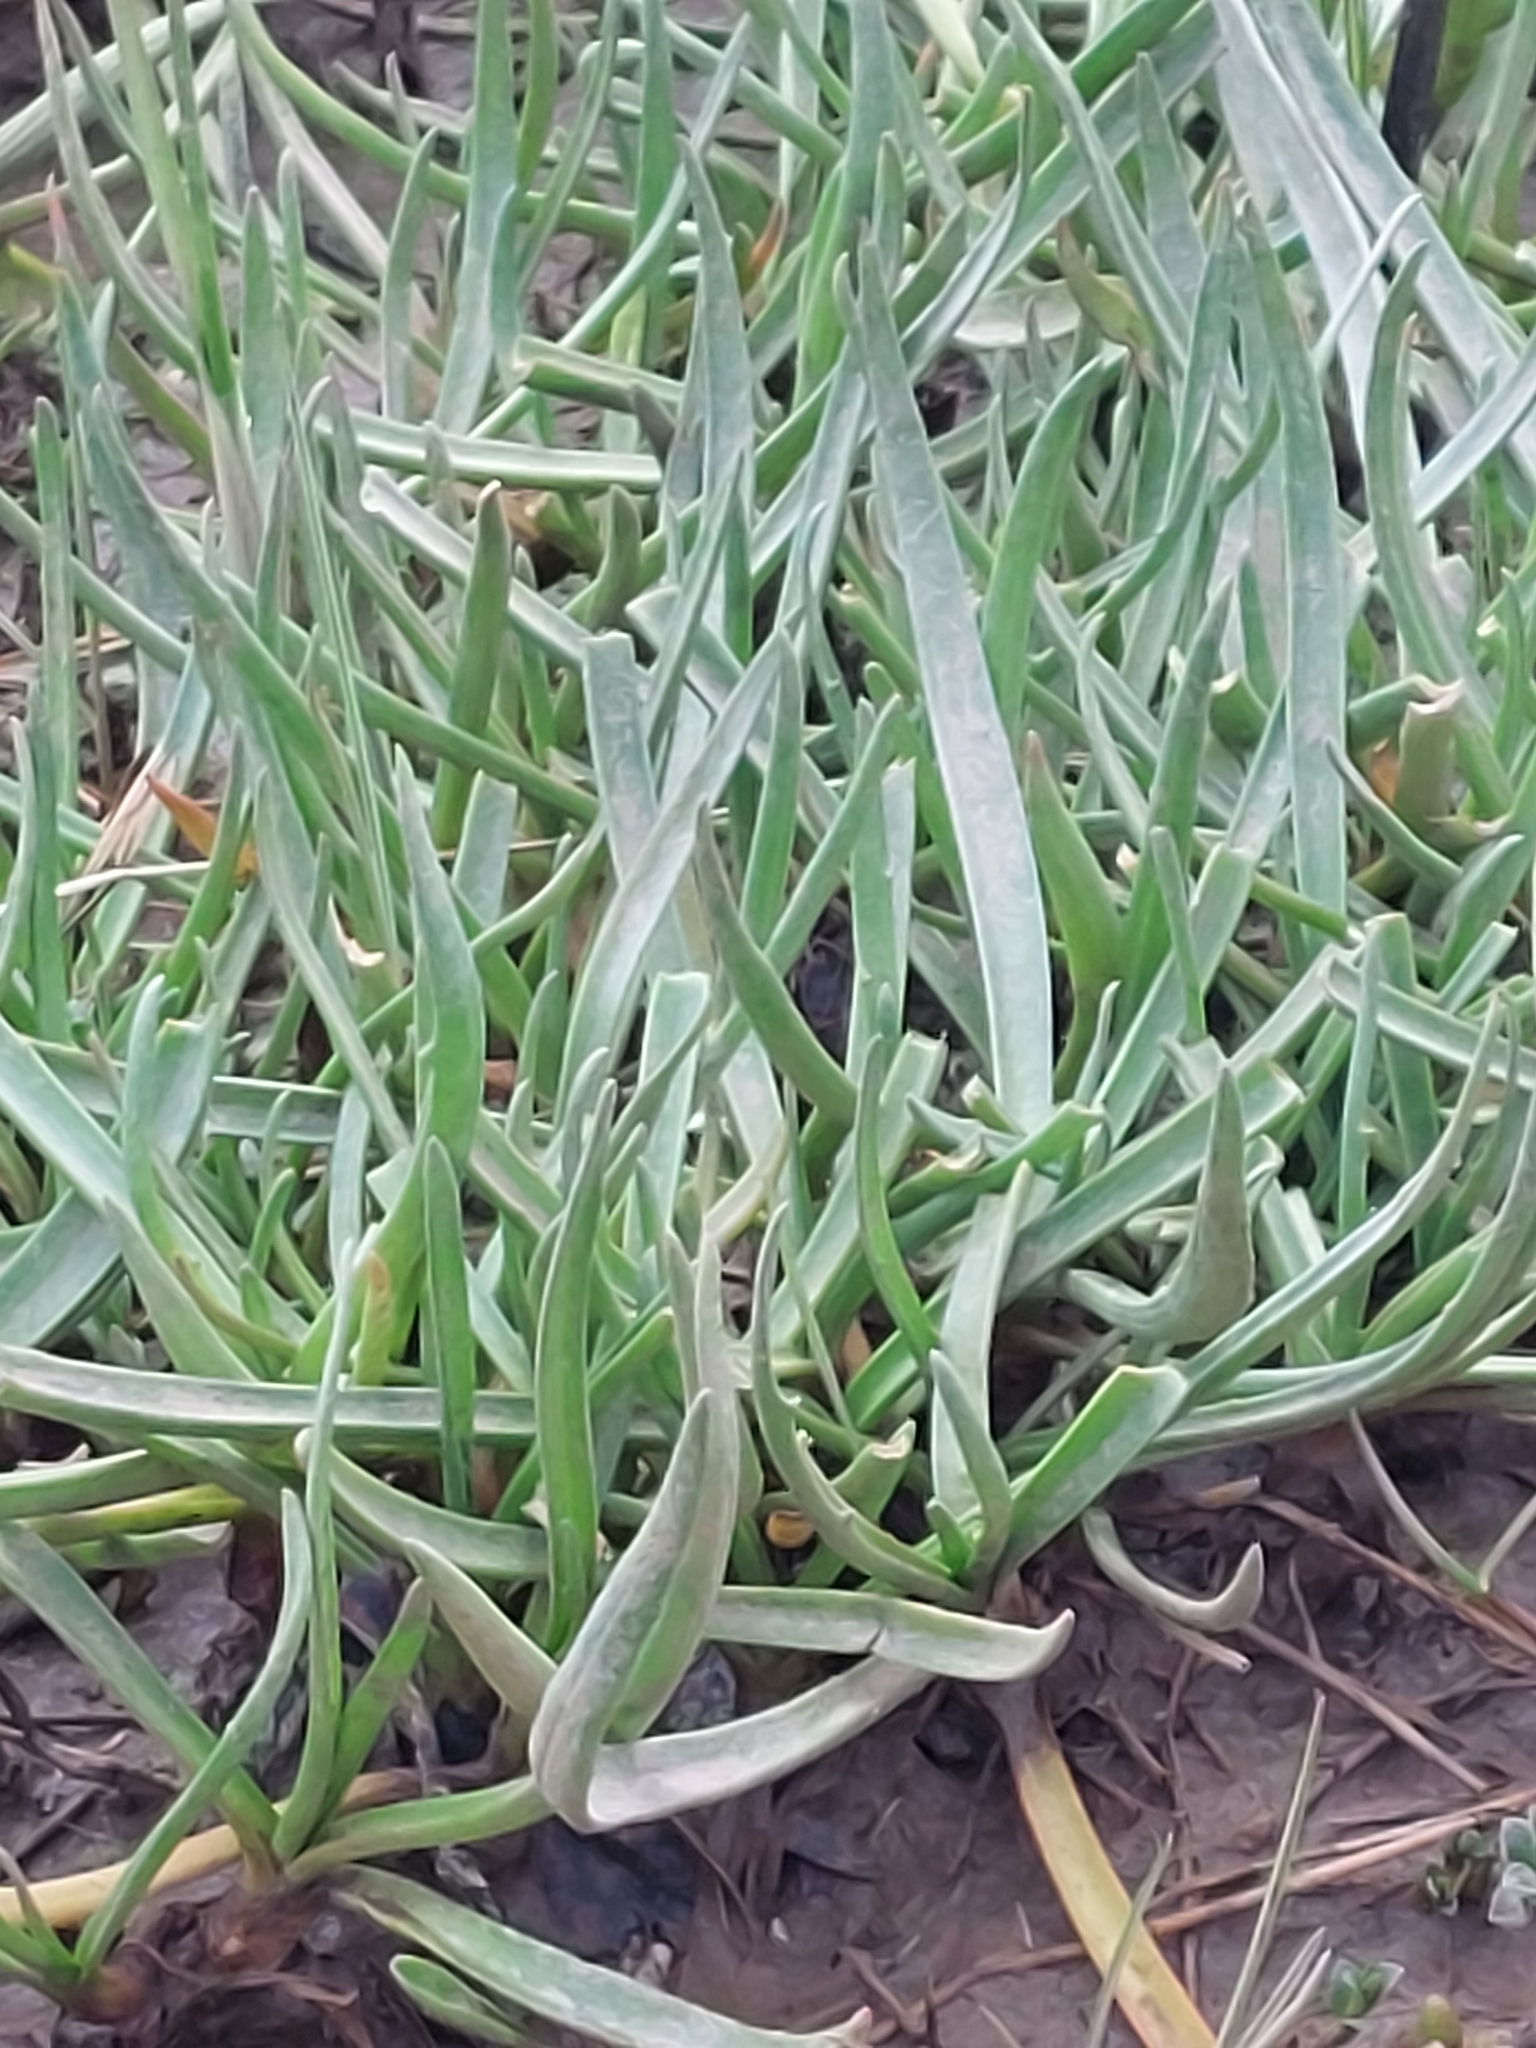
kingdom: Plantae
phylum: Tracheophyta
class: Magnoliopsida
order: Lamiales
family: Plantaginaceae
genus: Plantago
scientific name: Plantago maritima
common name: Sea plantain
